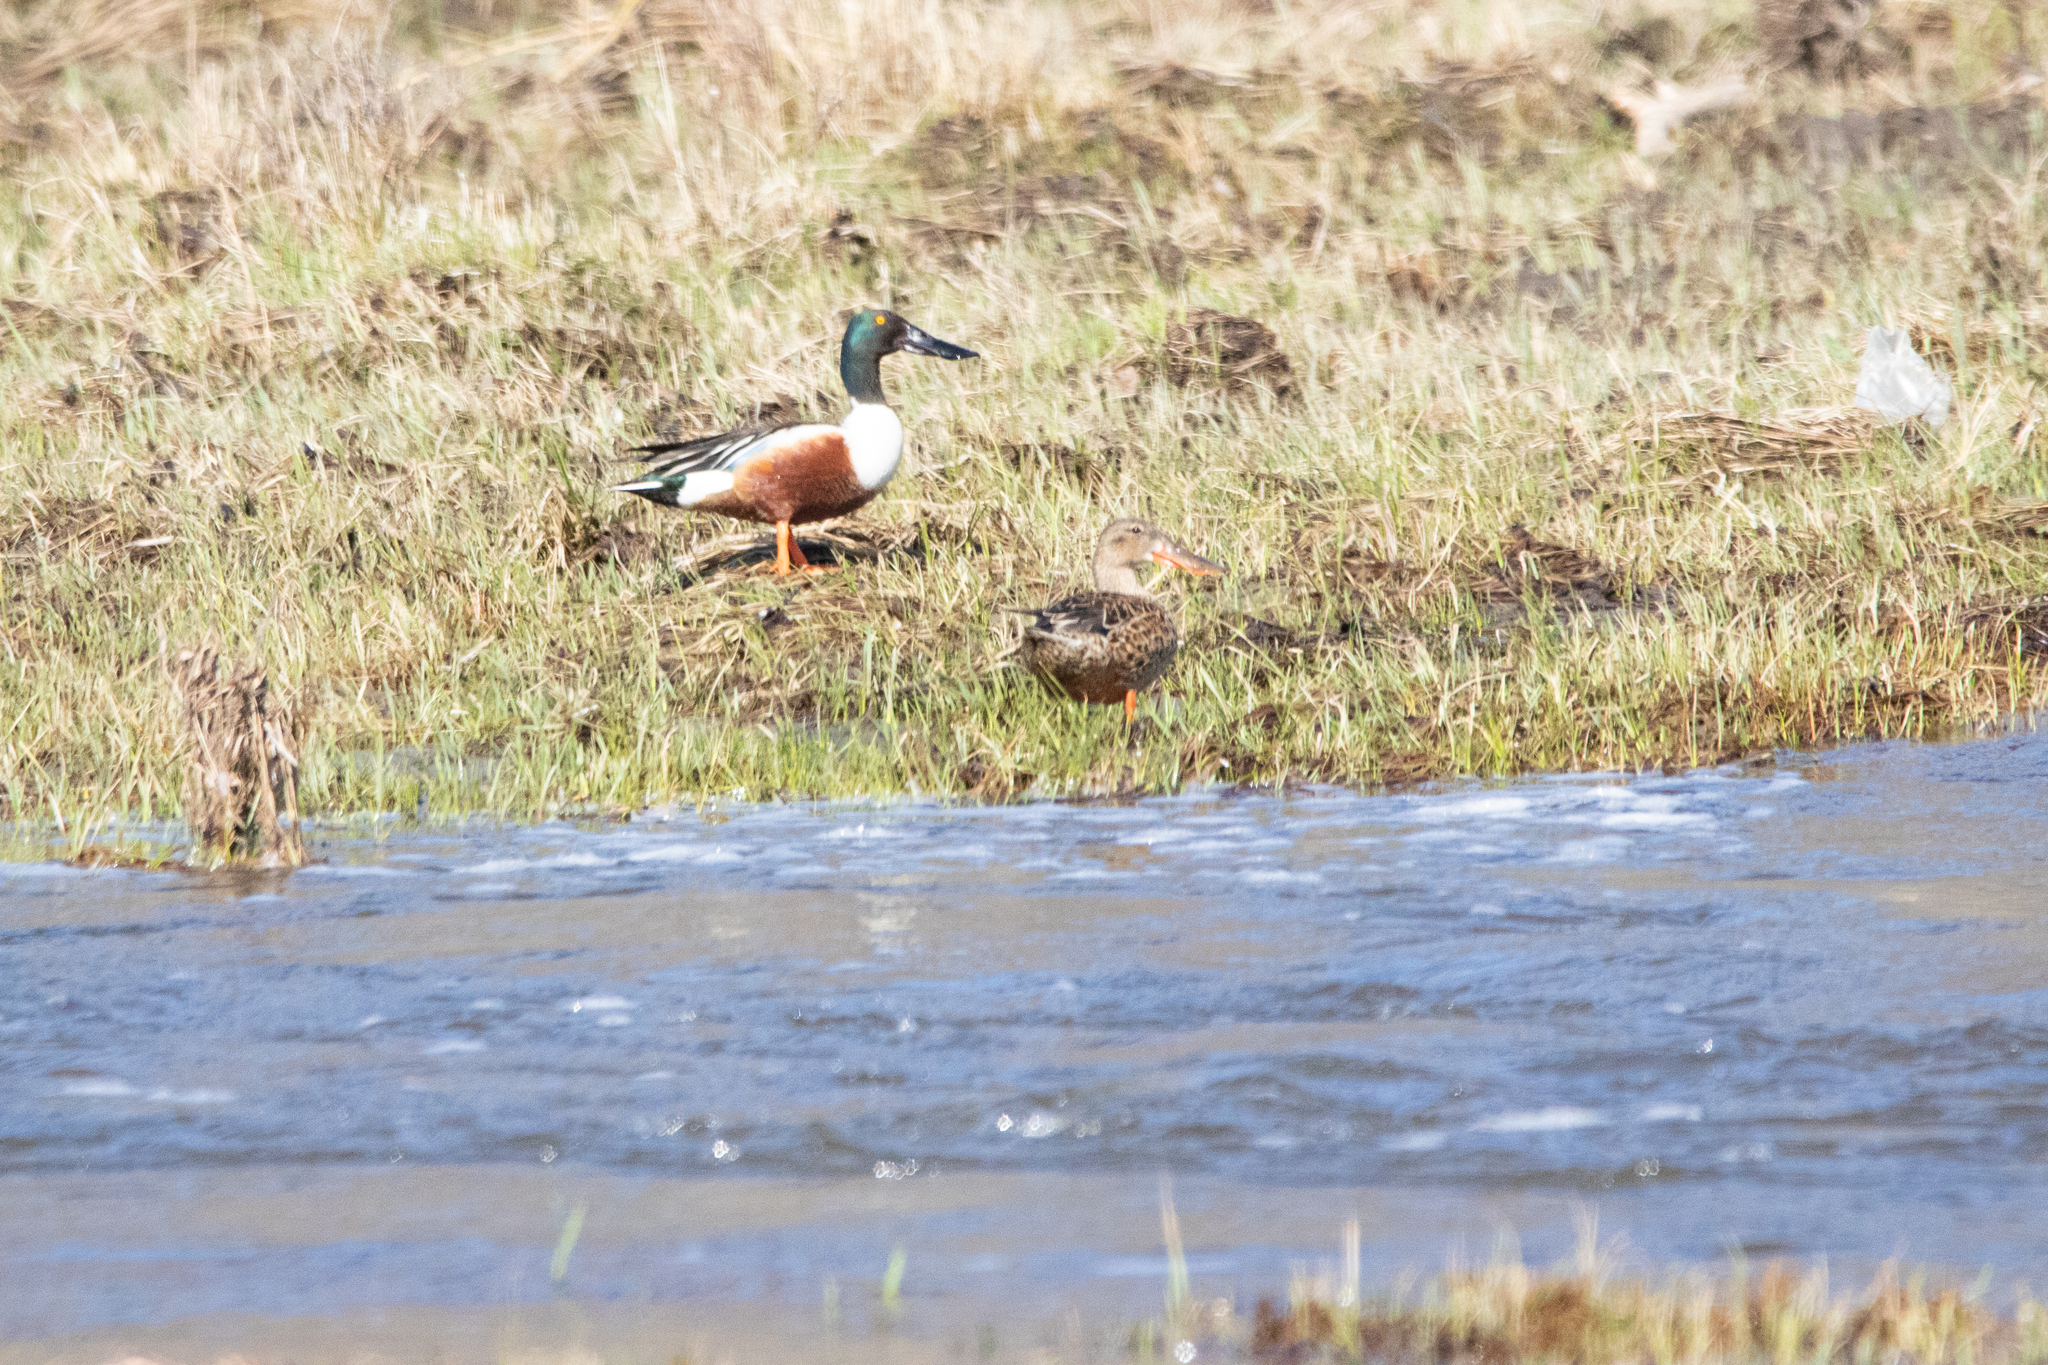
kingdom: Animalia
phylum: Chordata
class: Aves
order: Anseriformes
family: Anatidae
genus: Spatula
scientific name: Spatula clypeata
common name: Northern shoveler
